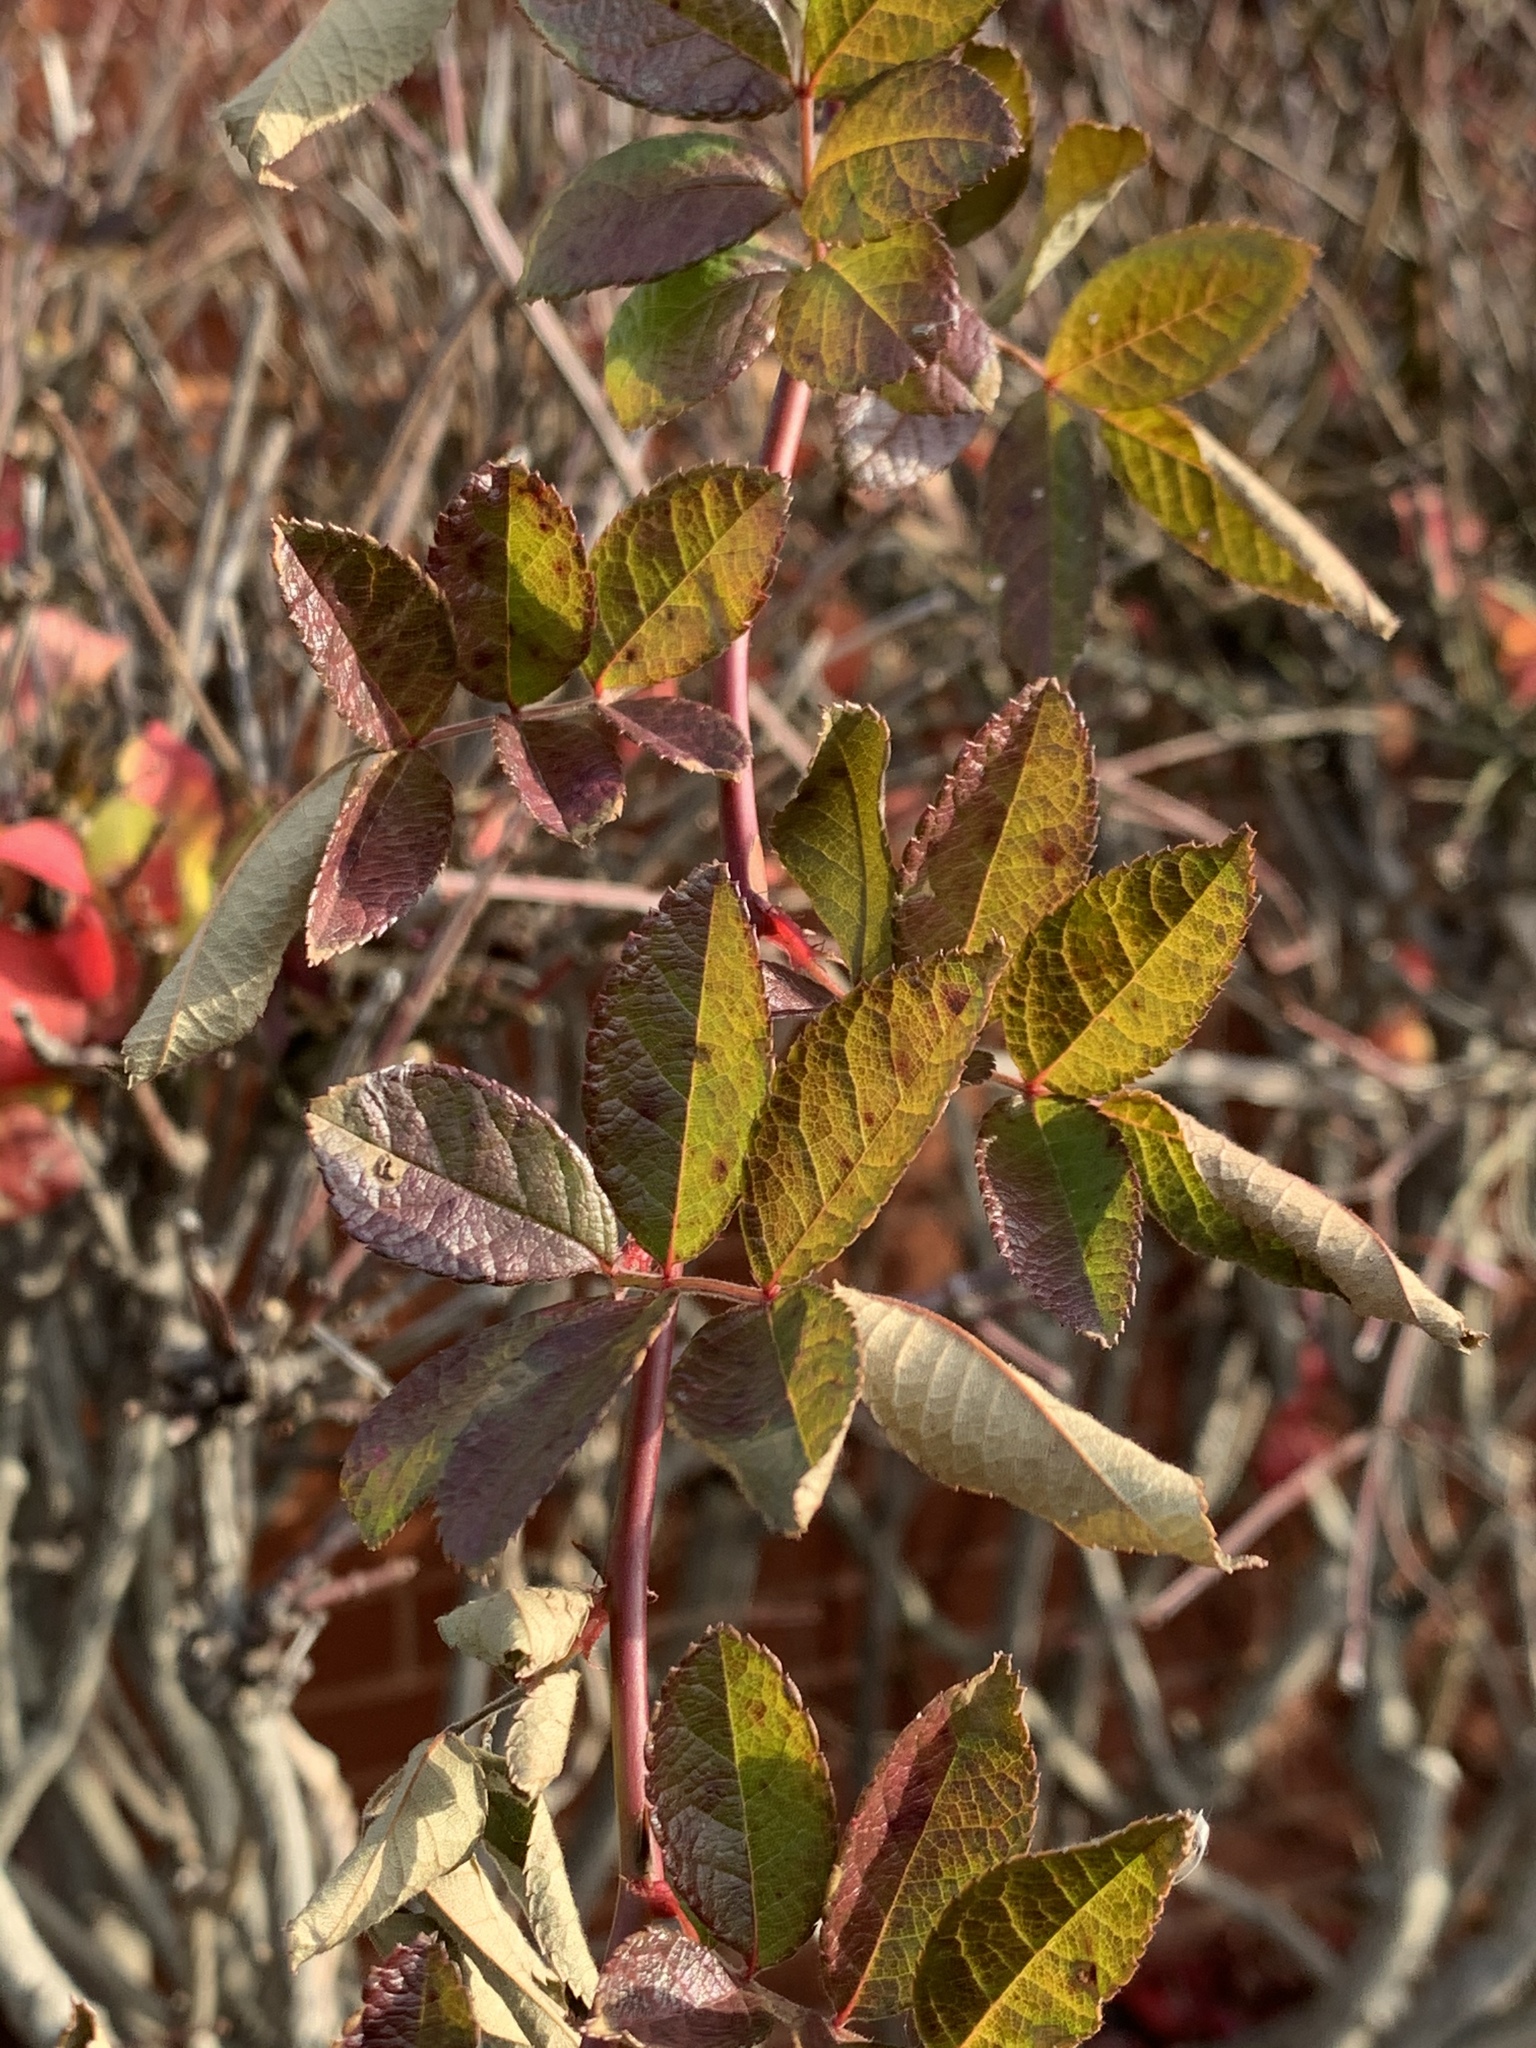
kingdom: Plantae
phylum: Tracheophyta
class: Magnoliopsida
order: Rosales
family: Rosaceae
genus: Rosa
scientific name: Rosa multiflora
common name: Multiflora rose
